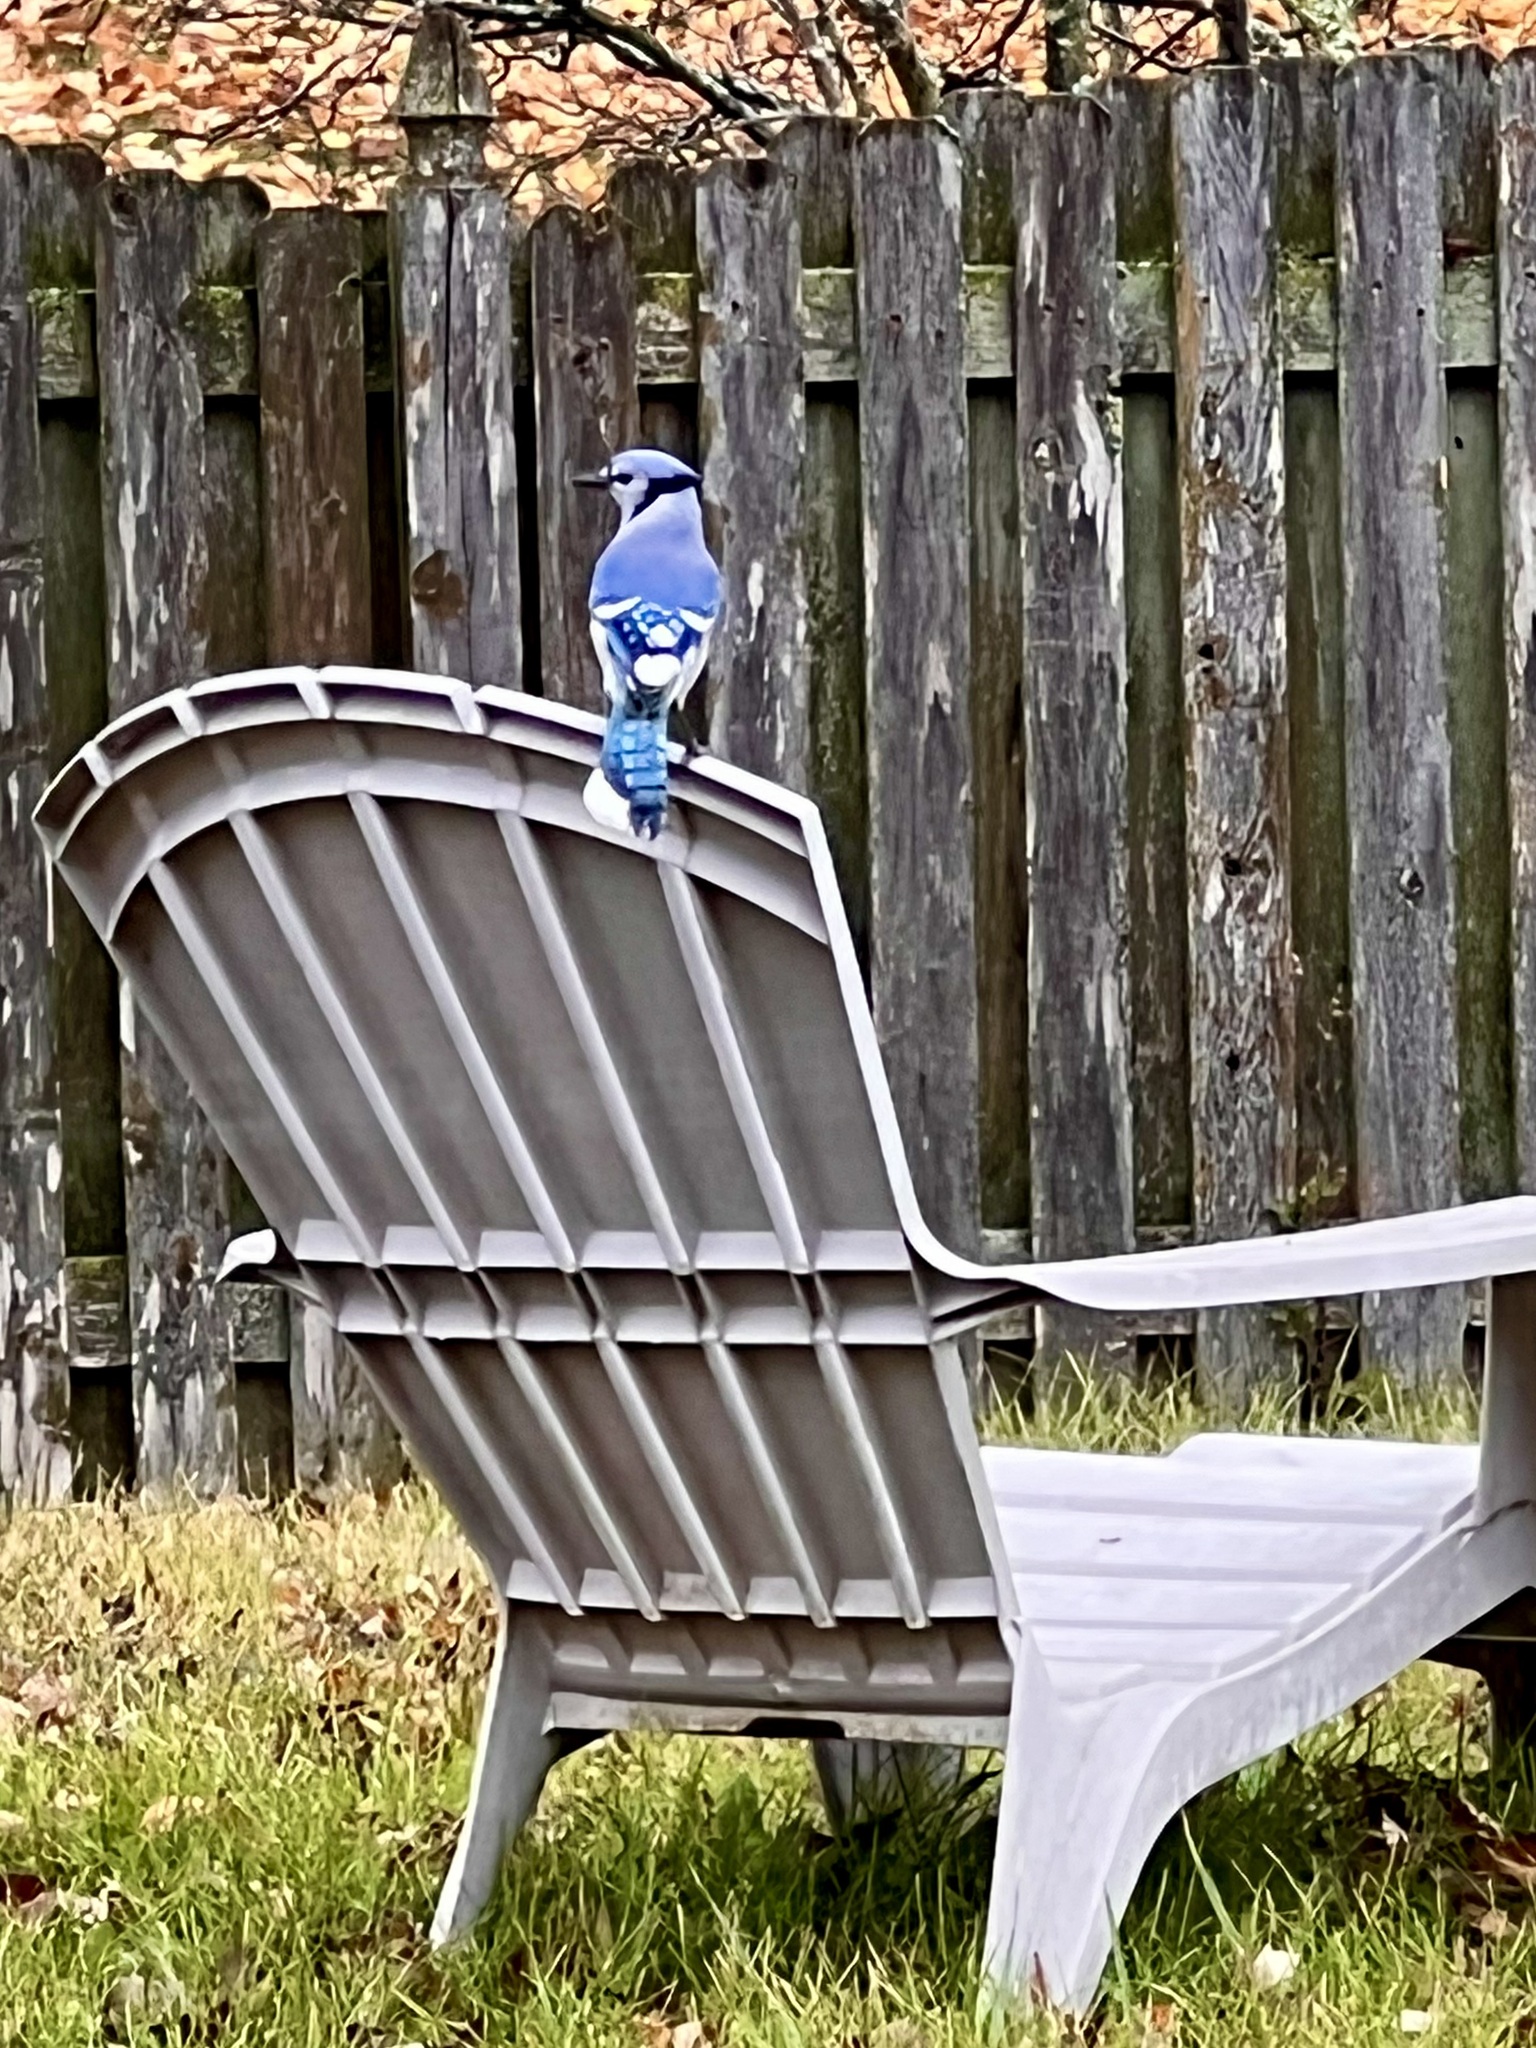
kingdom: Animalia
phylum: Chordata
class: Aves
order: Passeriformes
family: Corvidae
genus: Cyanocitta
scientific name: Cyanocitta cristata
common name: Blue jay
